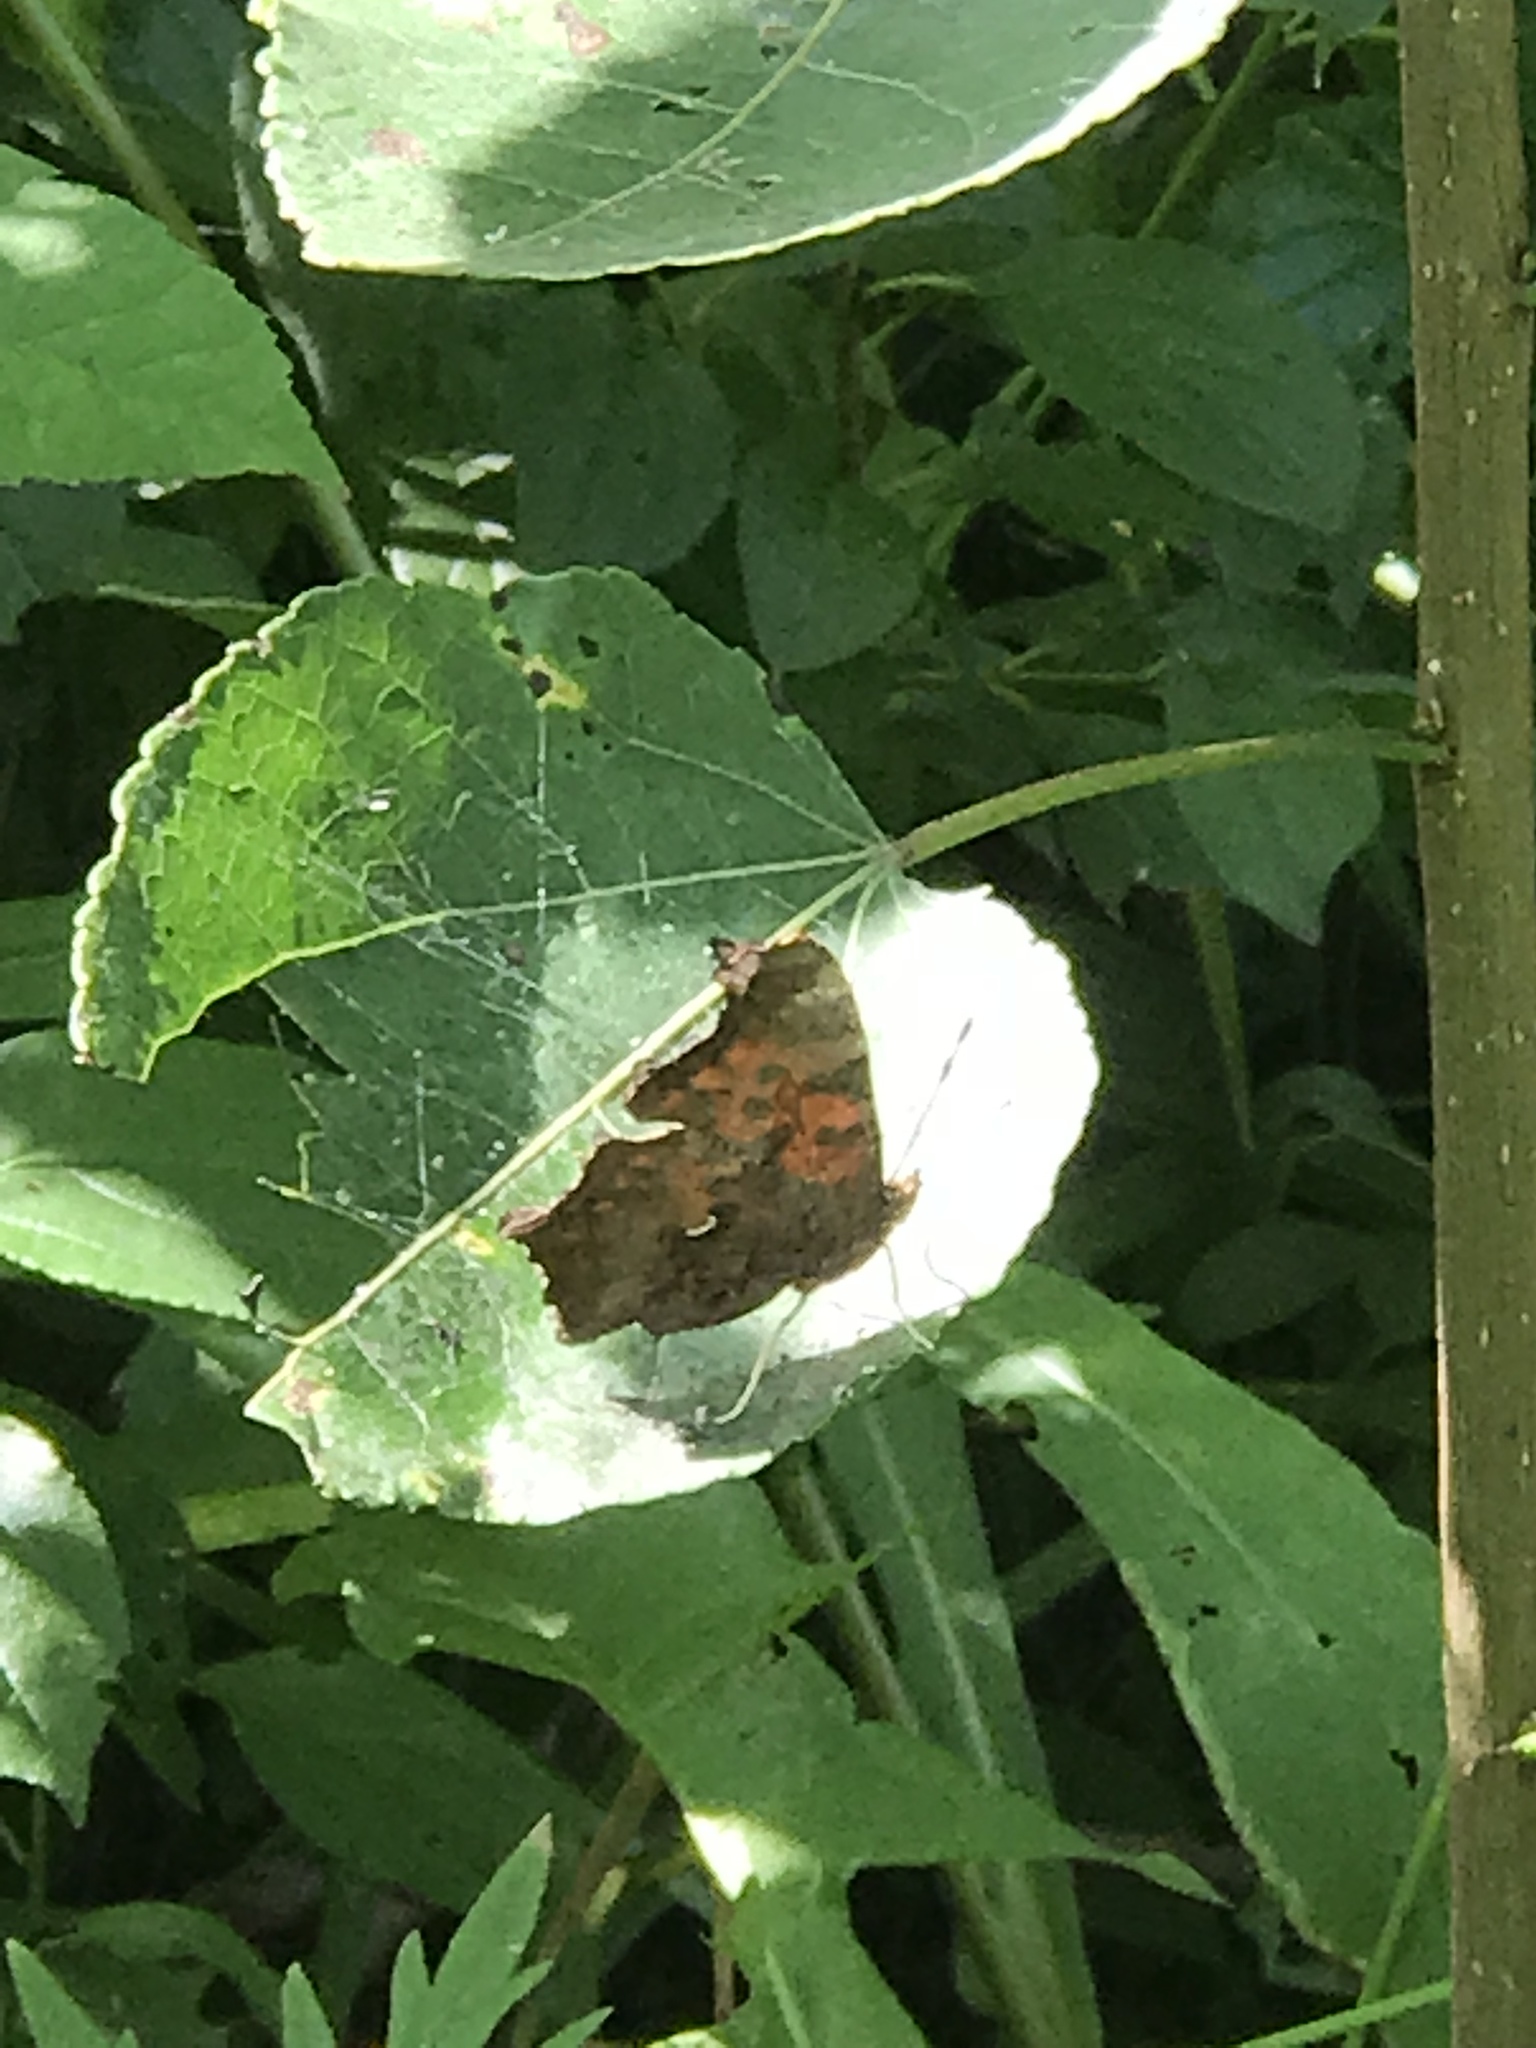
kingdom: Animalia
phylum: Arthropoda
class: Insecta
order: Lepidoptera
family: Nymphalidae
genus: Polygonia
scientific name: Polygonia comma
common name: Eastern comma
